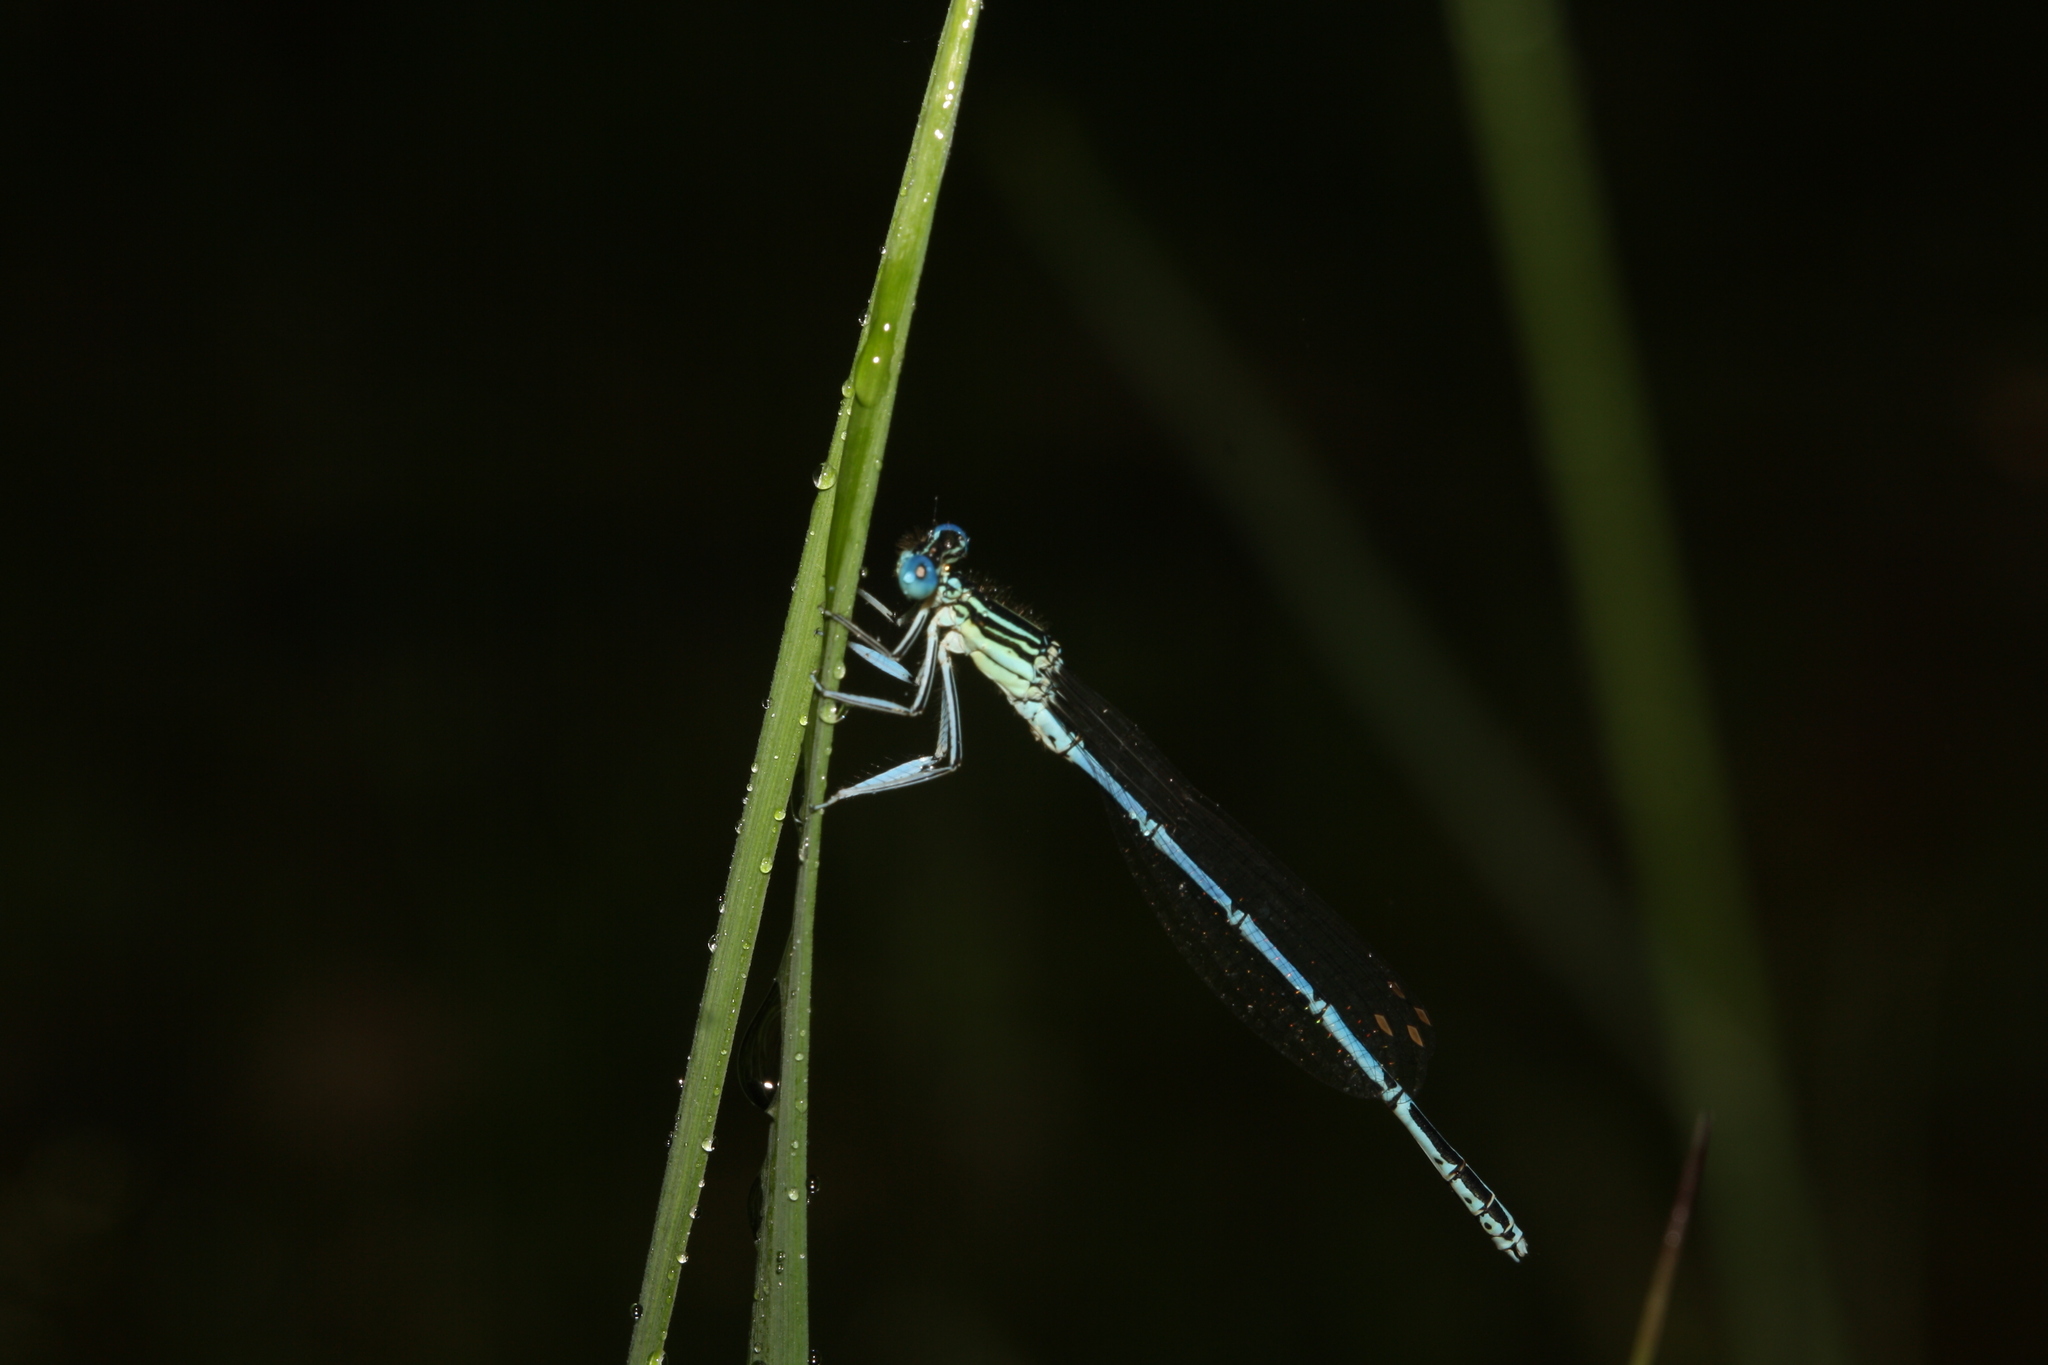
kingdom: Animalia
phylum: Arthropoda
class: Insecta
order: Odonata
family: Platycnemididae
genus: Platycnemis
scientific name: Platycnemis pennipes
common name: White-legged damselfly
